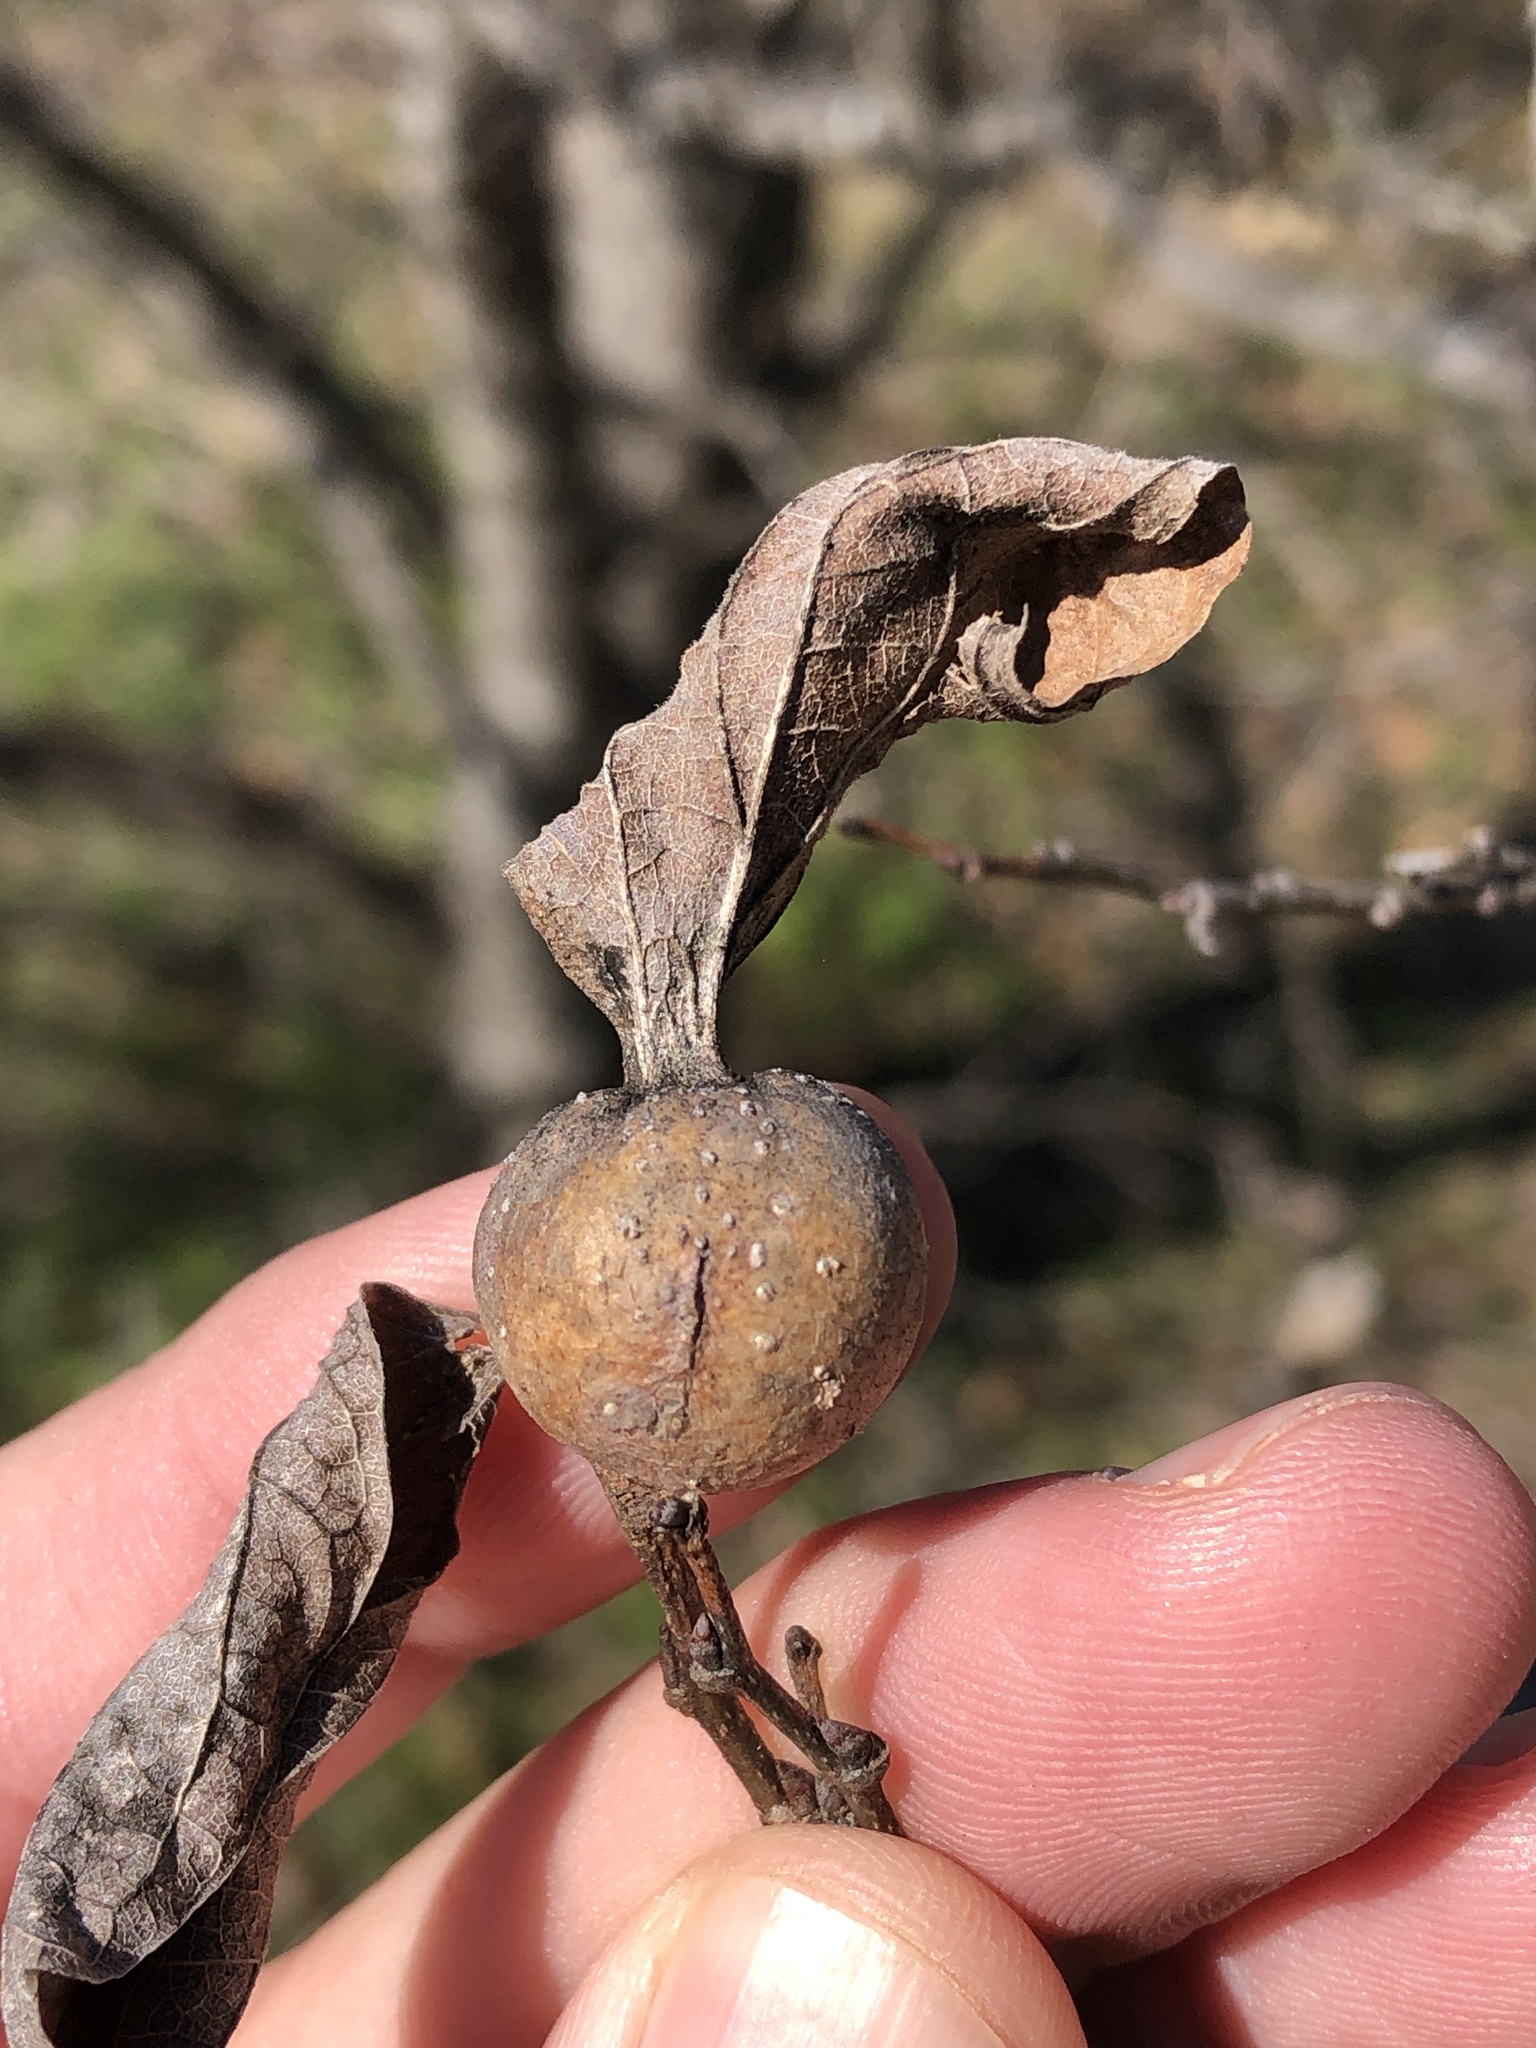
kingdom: Animalia
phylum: Arthropoda
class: Insecta
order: Hemiptera
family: Aphalaridae
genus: Pachypsylla
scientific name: Pachypsylla venusta
